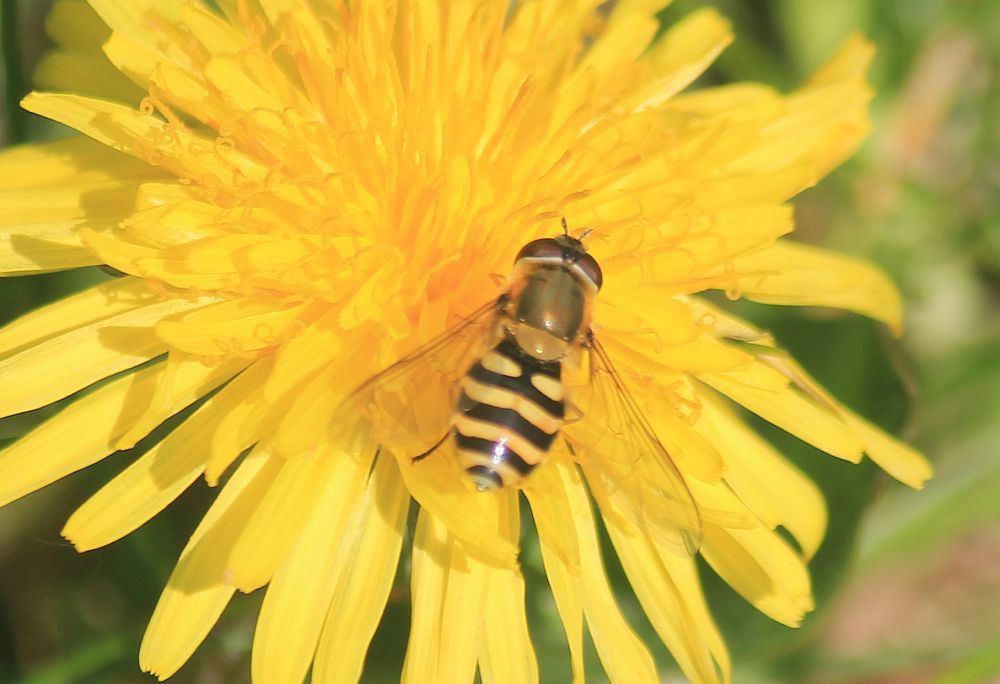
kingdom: Animalia
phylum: Arthropoda
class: Insecta
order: Diptera
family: Syrphidae
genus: Syrphus
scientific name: Syrphus
